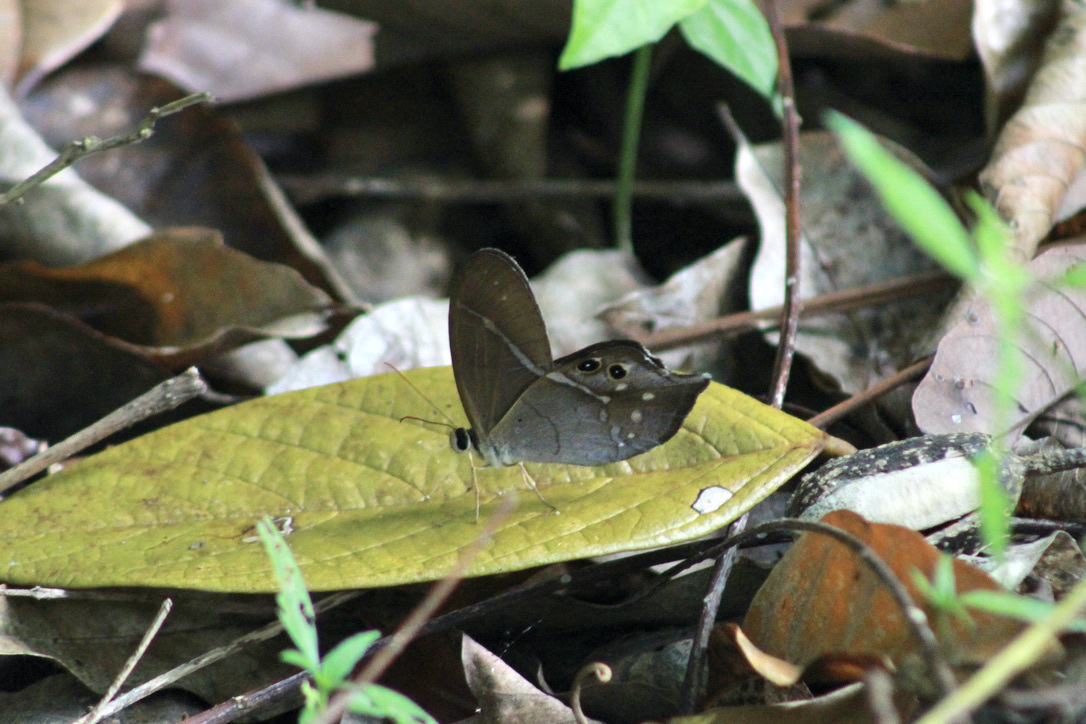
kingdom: Animalia
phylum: Arthropoda
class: Insecta
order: Lepidoptera
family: Nymphalidae
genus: Pierella
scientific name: Pierella dracontis
